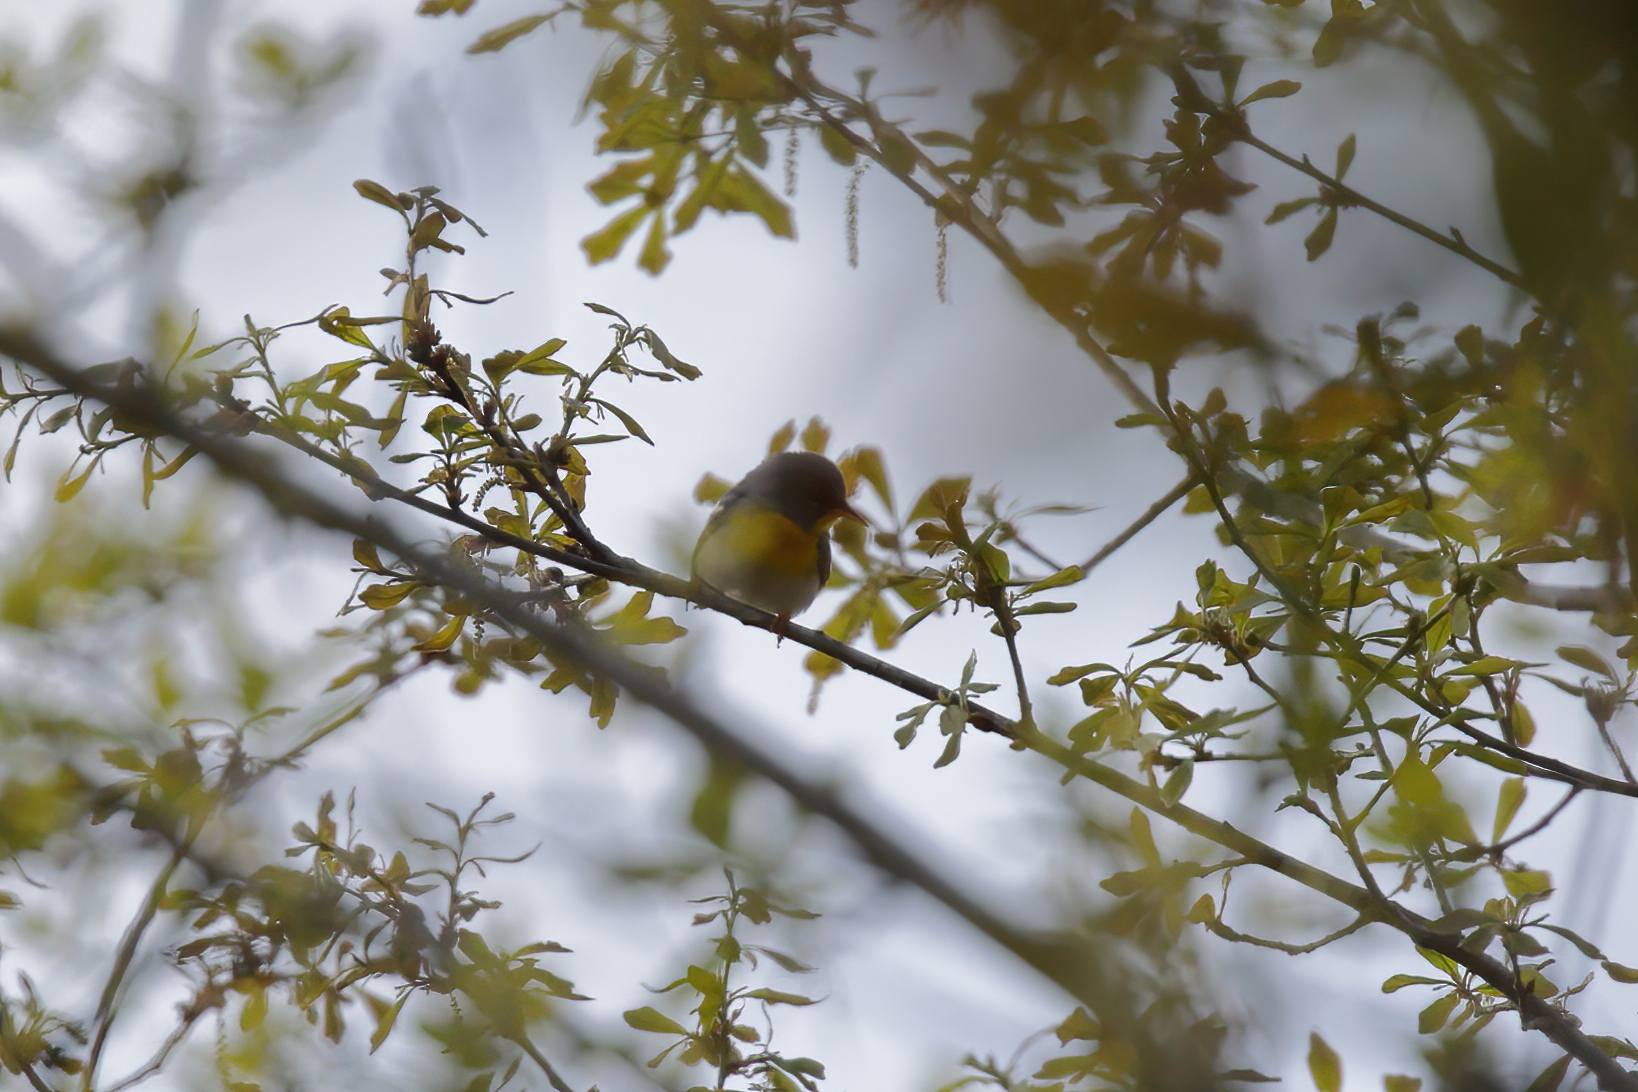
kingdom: Animalia
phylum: Chordata
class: Aves
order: Passeriformes
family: Parulidae
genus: Setophaga
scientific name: Setophaga americana
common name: Northern parula
